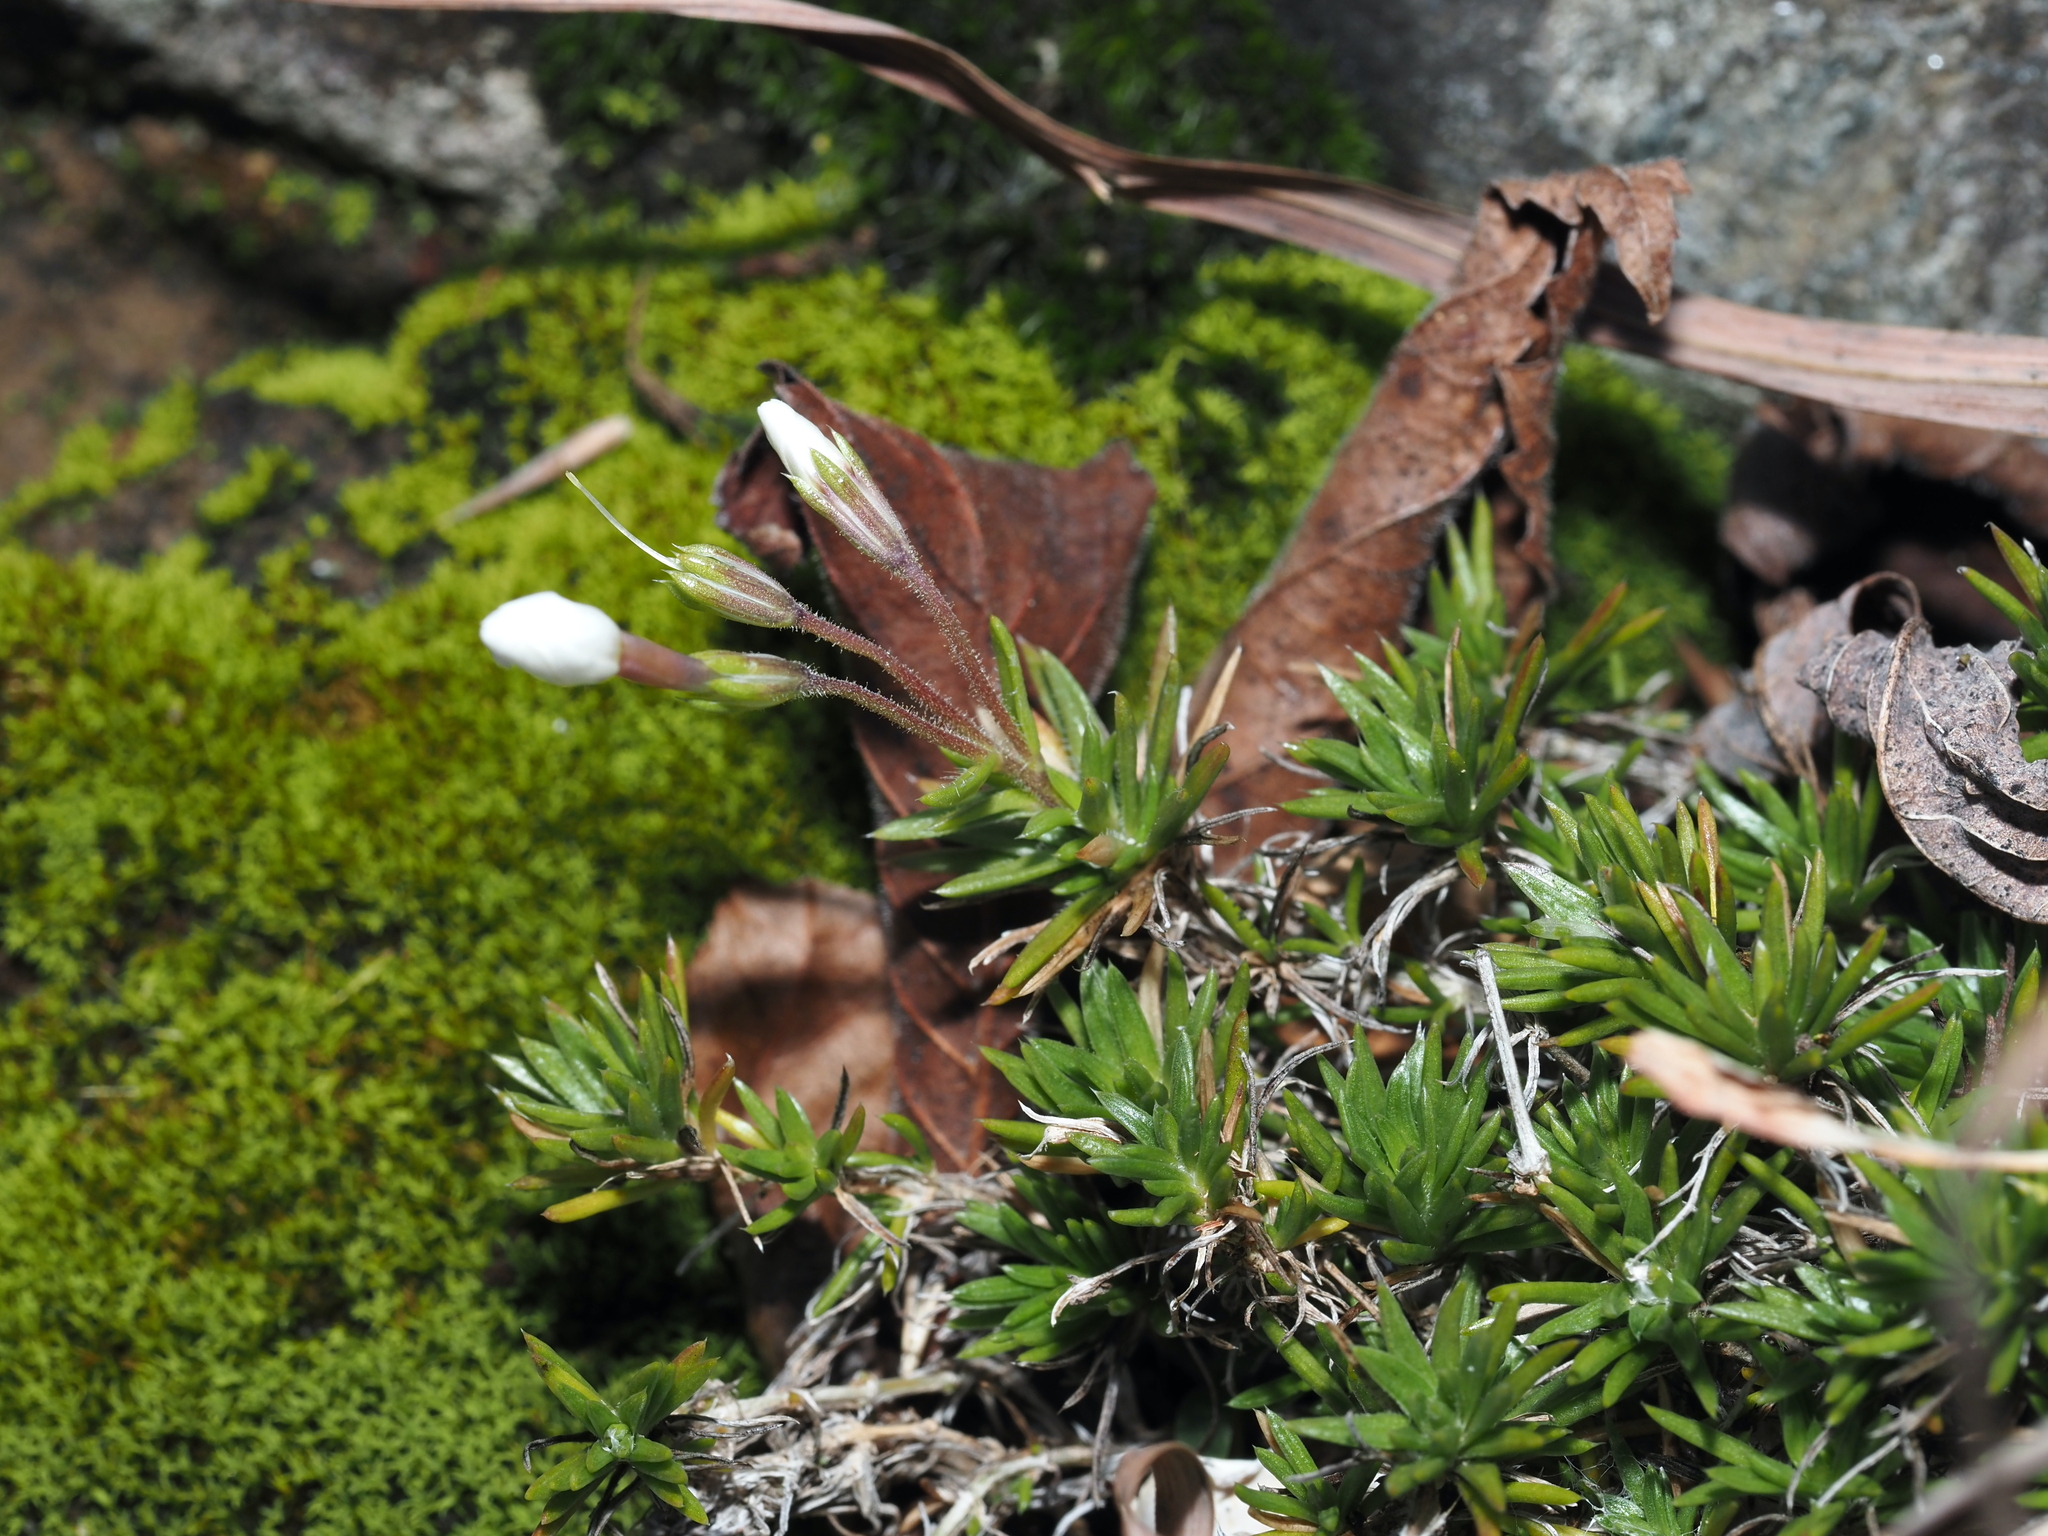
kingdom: Plantae
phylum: Tracheophyta
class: Magnoliopsida
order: Ericales
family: Polemoniaceae
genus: Phlox
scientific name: Phlox subulata
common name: Moss phlox
